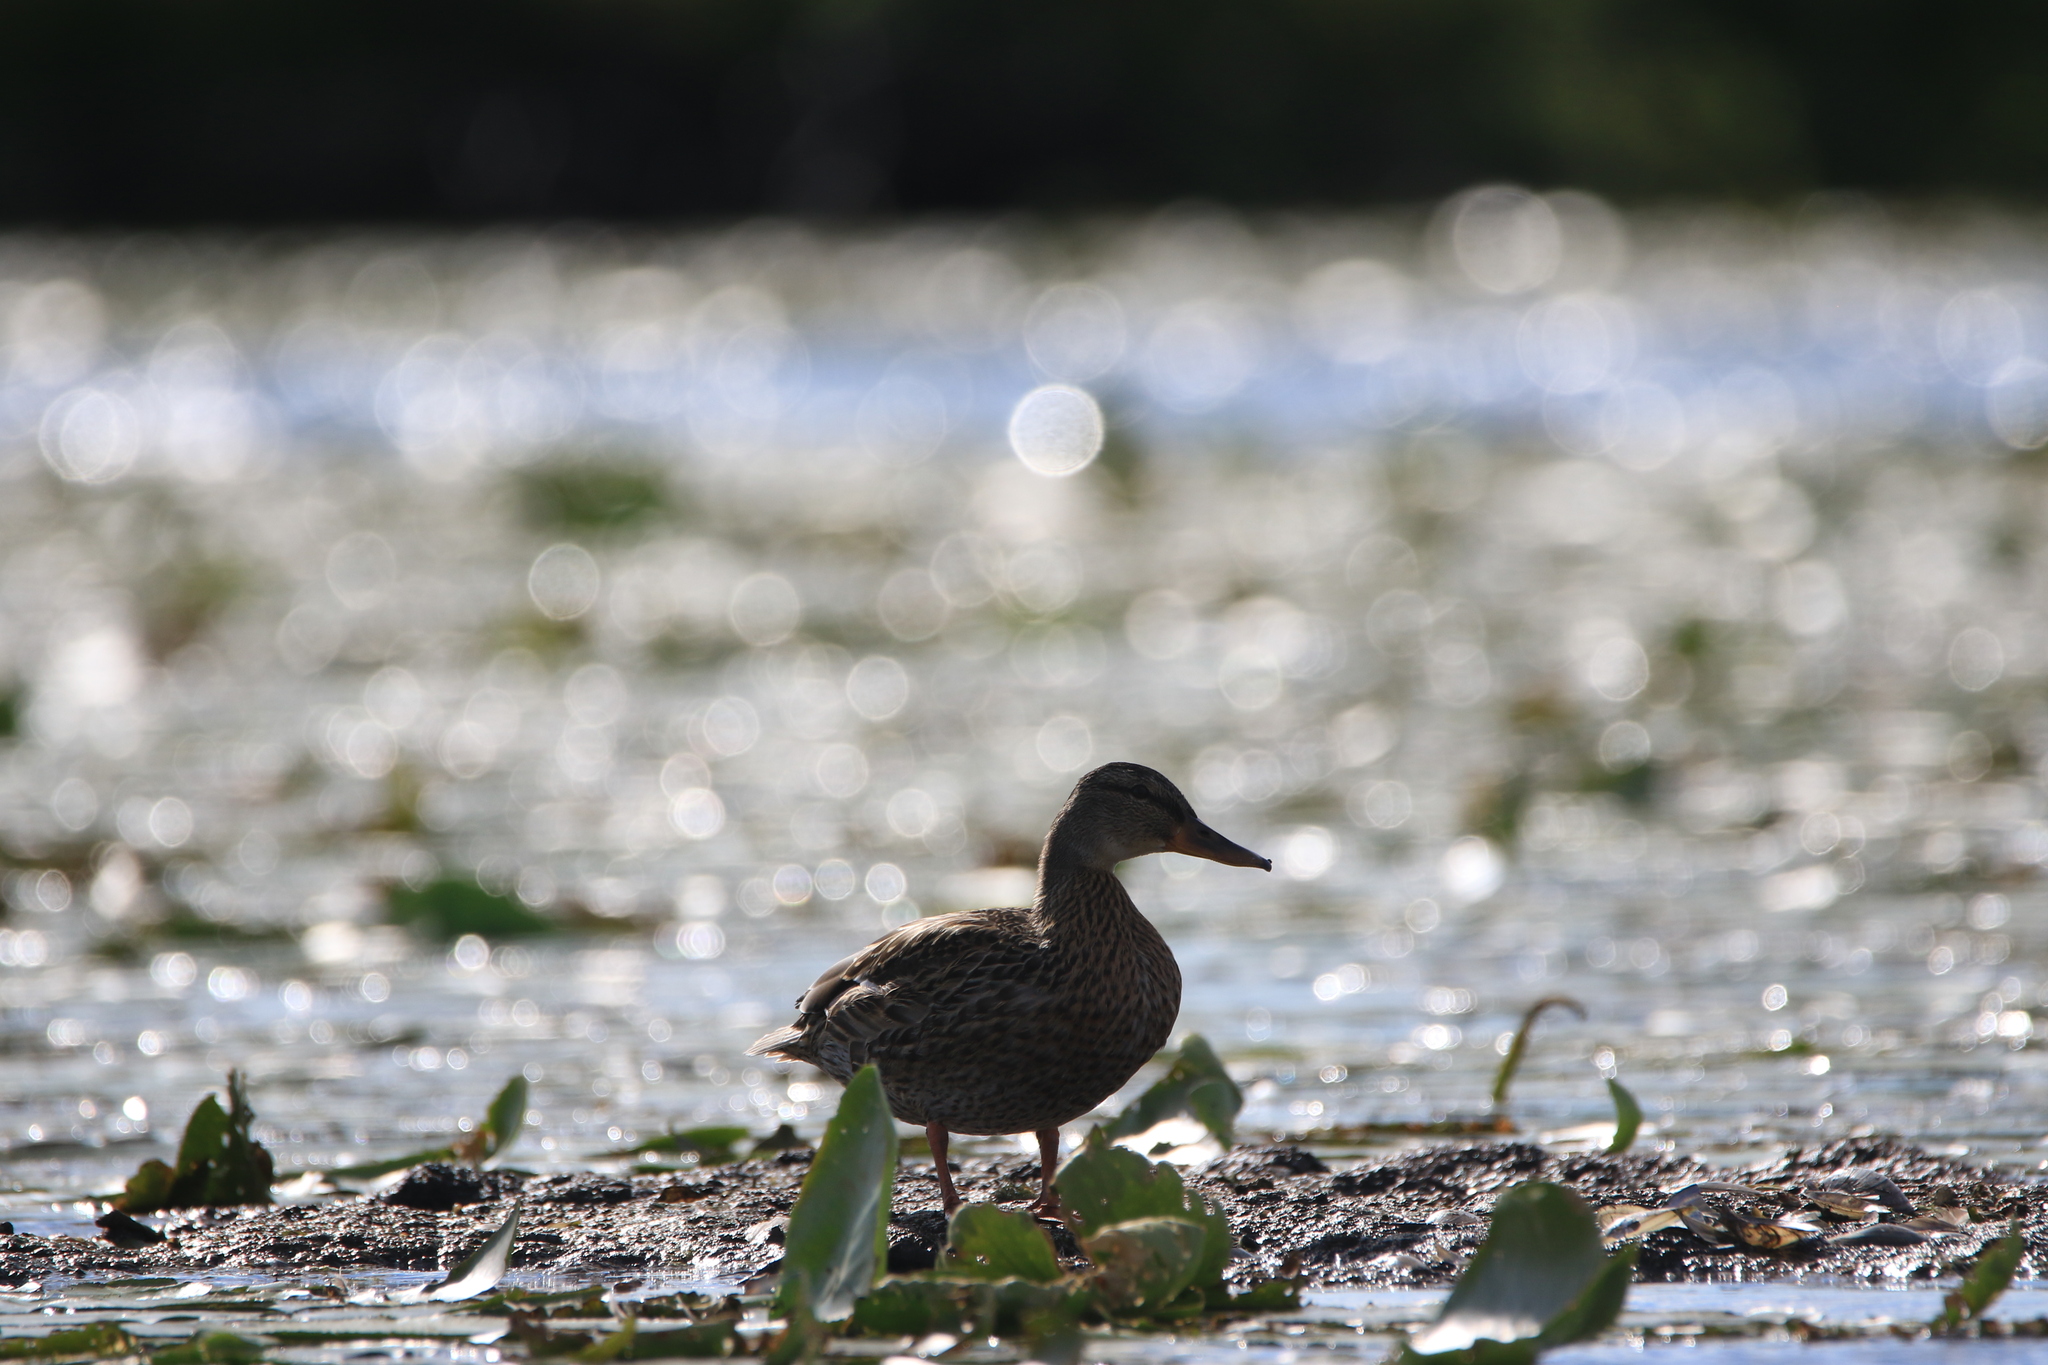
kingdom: Animalia
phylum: Chordata
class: Aves
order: Anseriformes
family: Anatidae
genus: Anas
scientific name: Anas platyrhynchos
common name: Mallard
